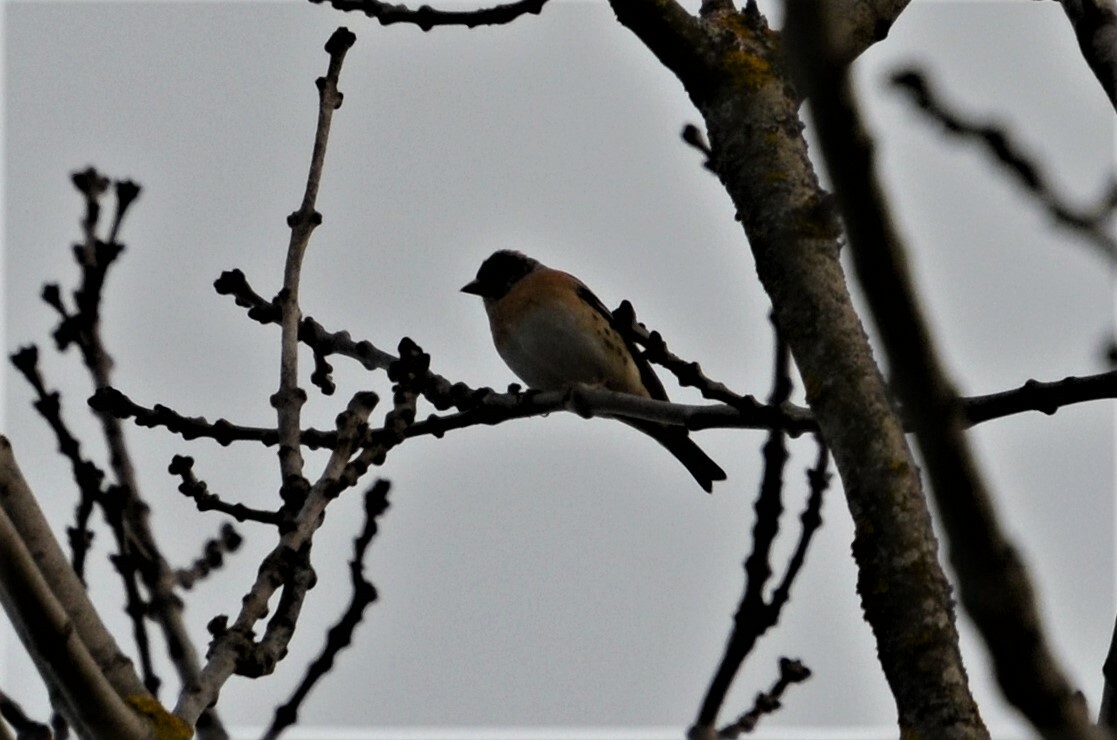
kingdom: Animalia
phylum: Chordata
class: Aves
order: Passeriformes
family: Fringillidae
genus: Fringilla
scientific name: Fringilla montifringilla
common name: Brambling
